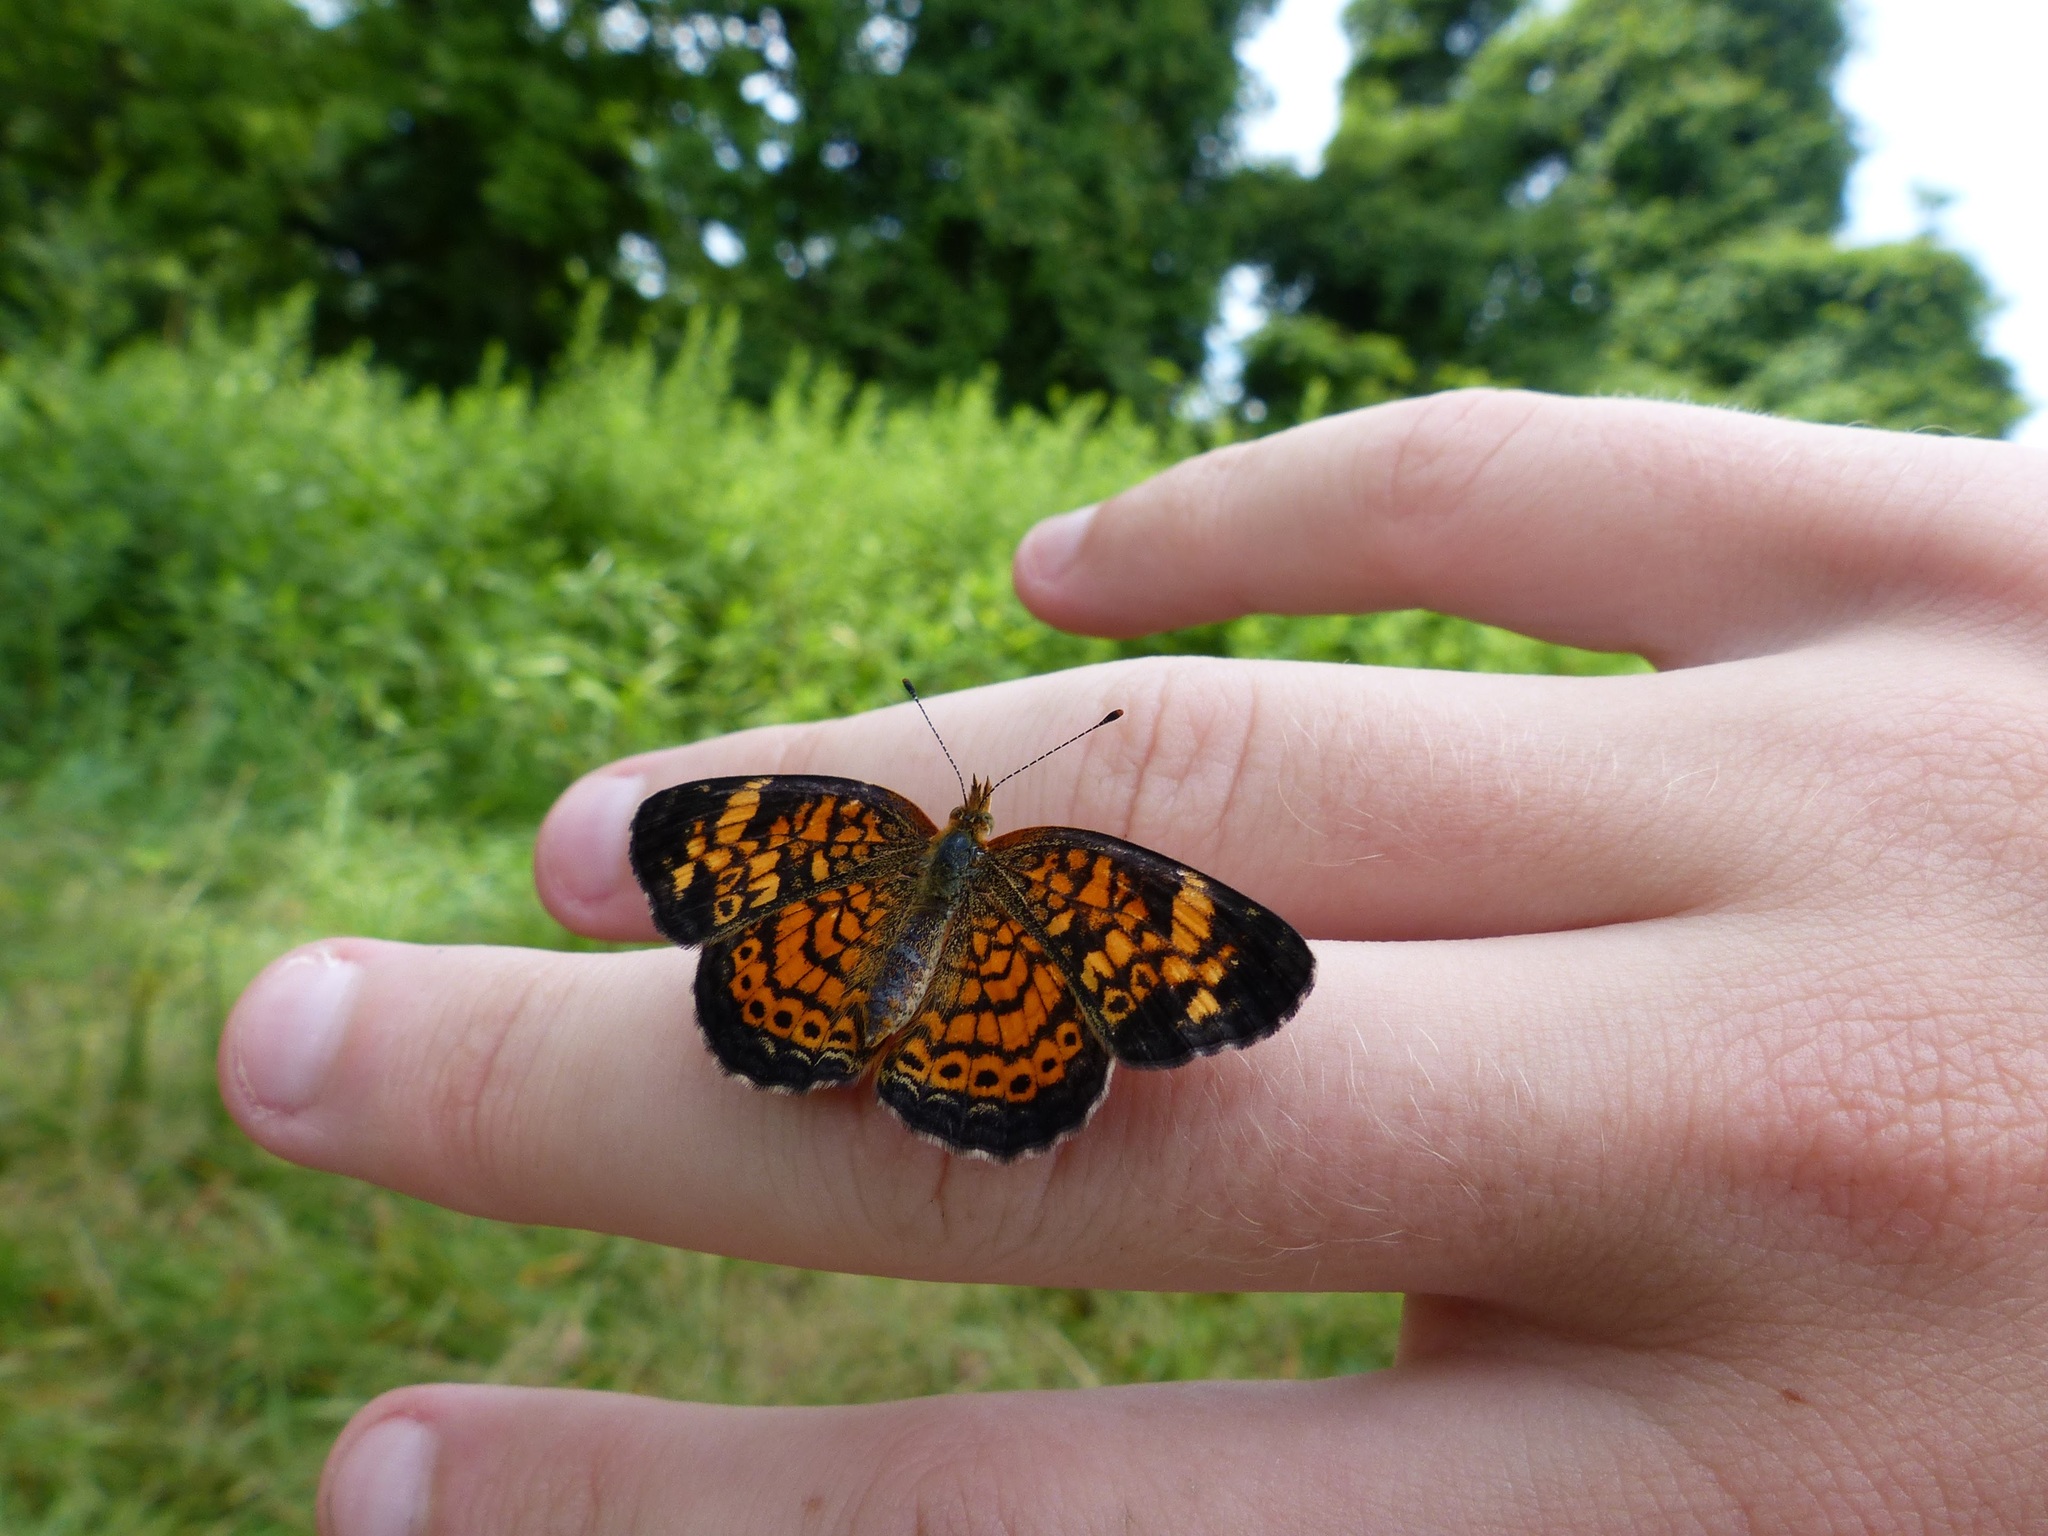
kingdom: Animalia
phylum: Arthropoda
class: Insecta
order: Lepidoptera
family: Nymphalidae
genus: Phyciodes
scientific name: Phyciodes tharos
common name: Pearl crescent
